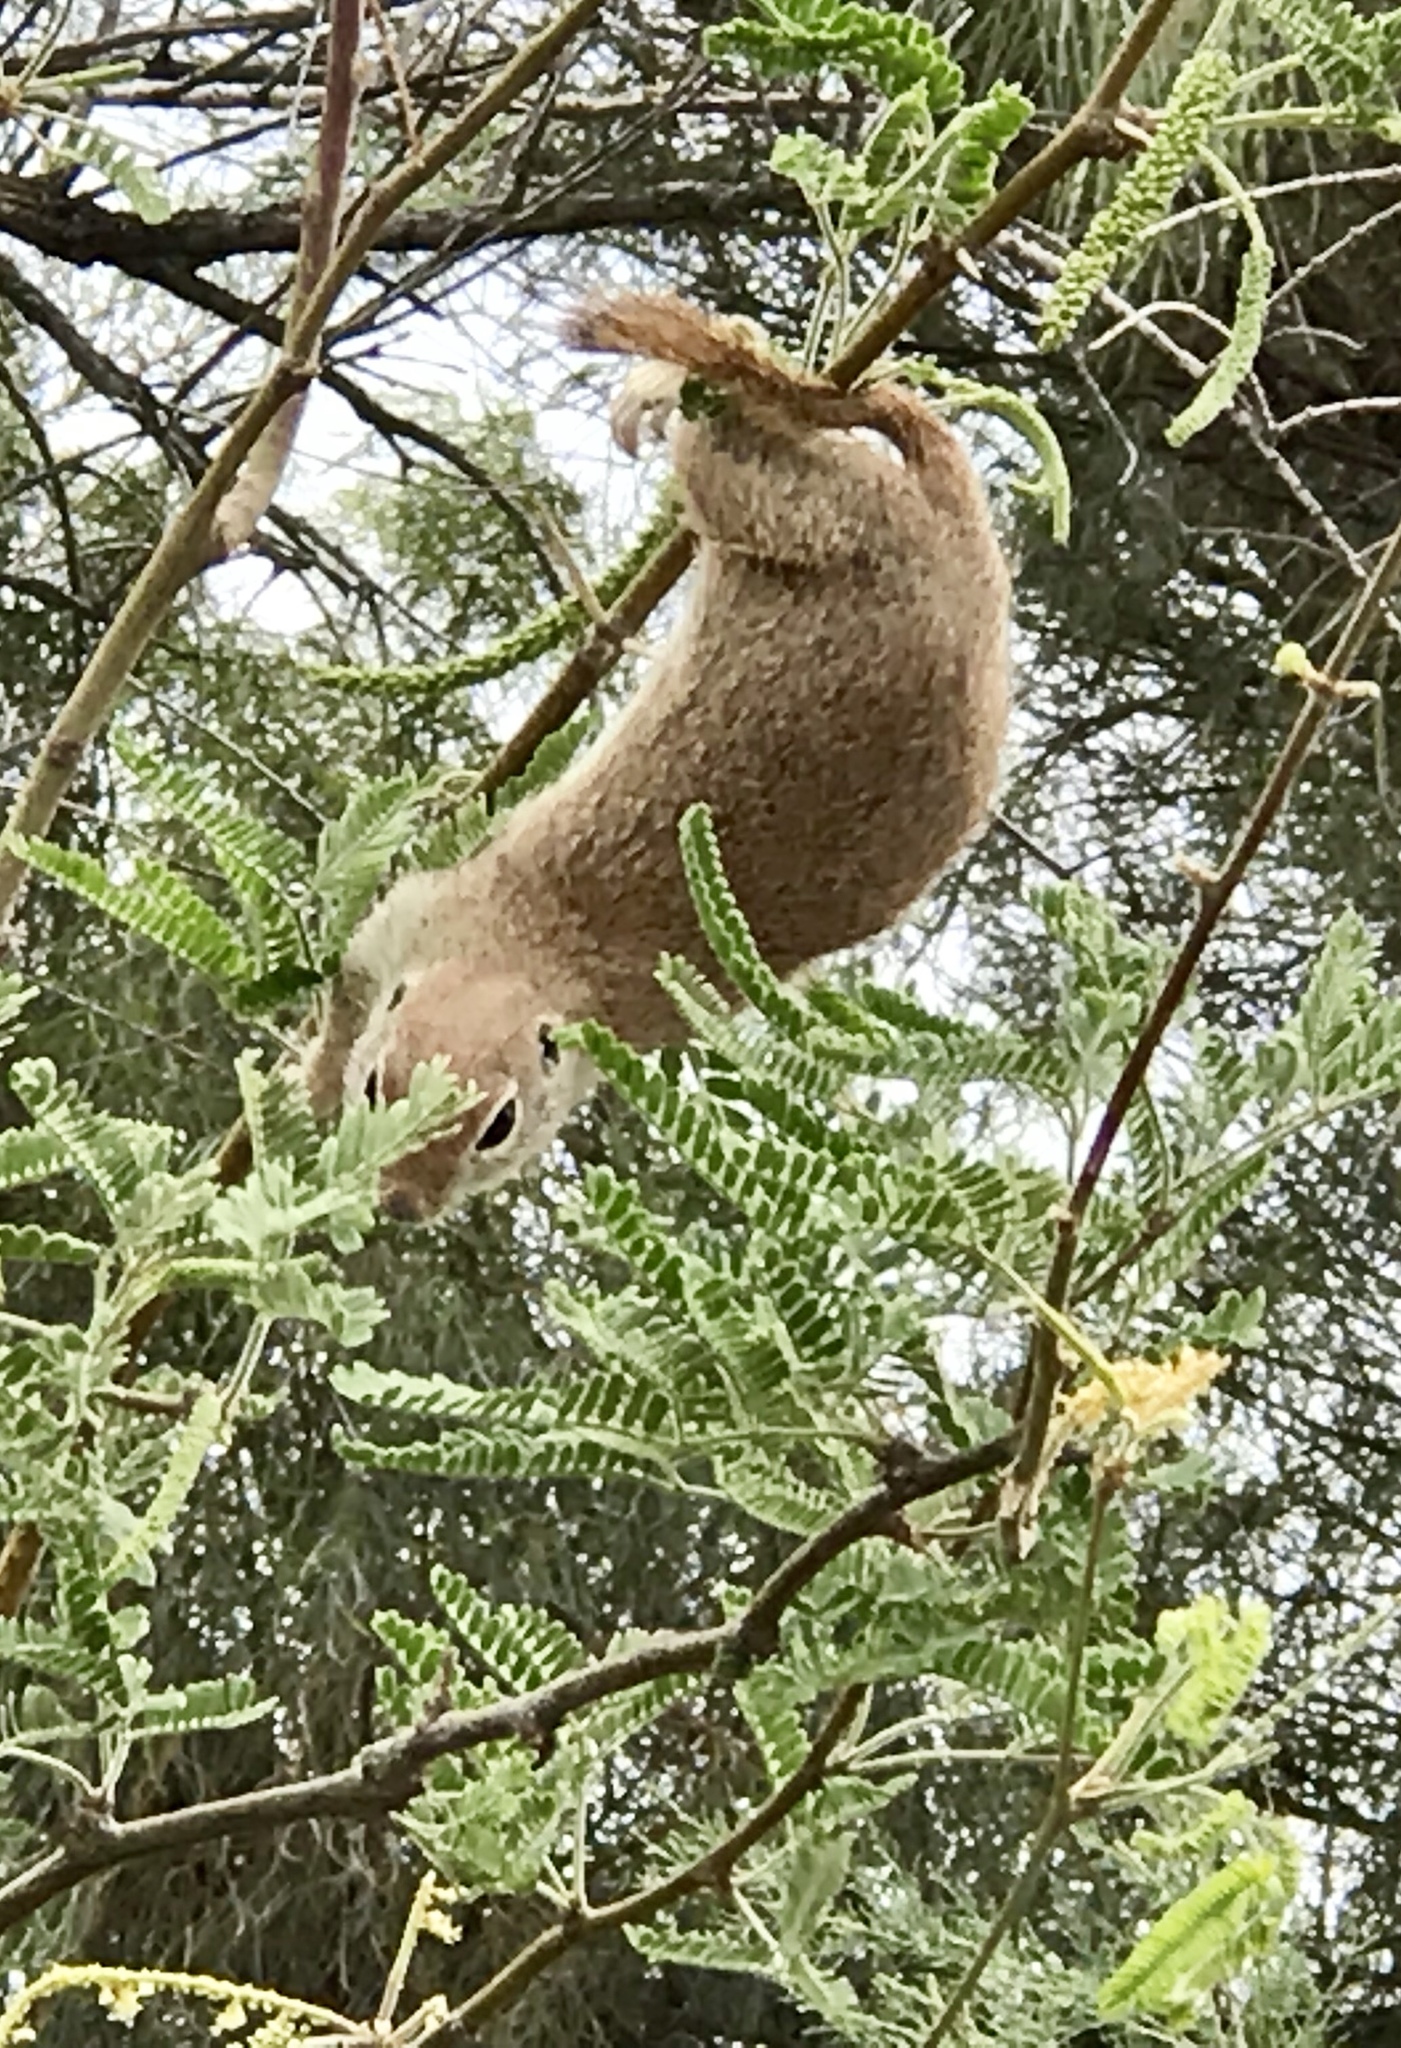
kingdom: Animalia
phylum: Chordata
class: Mammalia
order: Rodentia
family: Sciuridae
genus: Xerospermophilus
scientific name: Xerospermophilus tereticaudus
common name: Round-tailed ground squirrel
